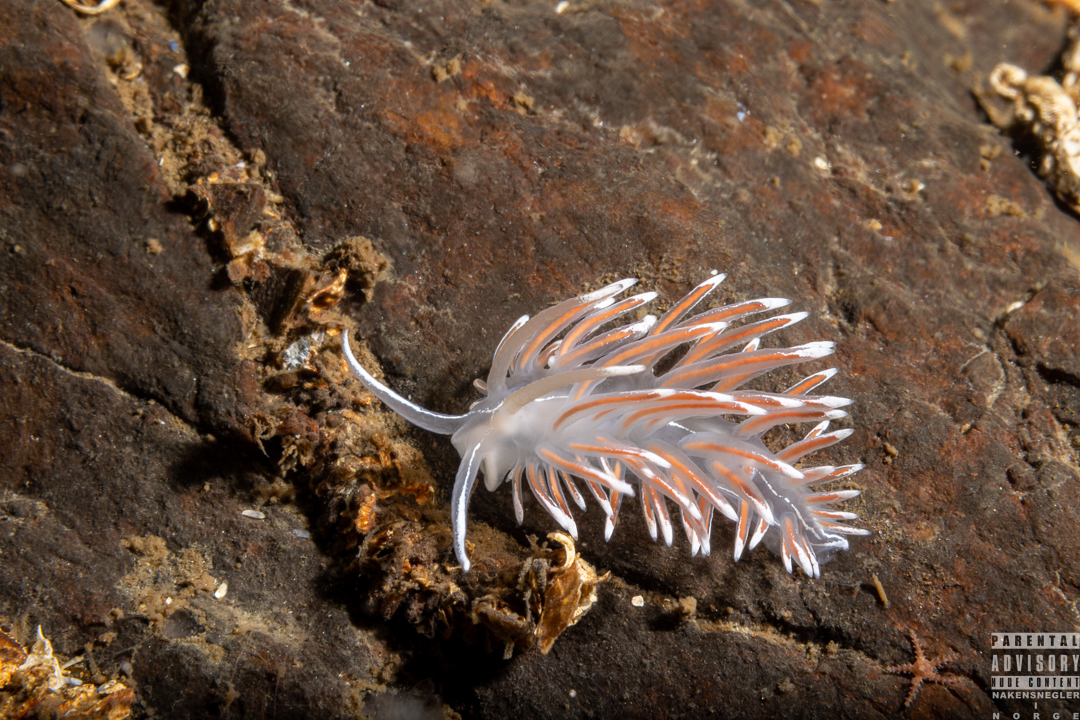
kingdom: Animalia
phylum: Mollusca
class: Gastropoda
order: Nudibranchia
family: Coryphellidae
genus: Coryphella
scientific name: Coryphella lineata
